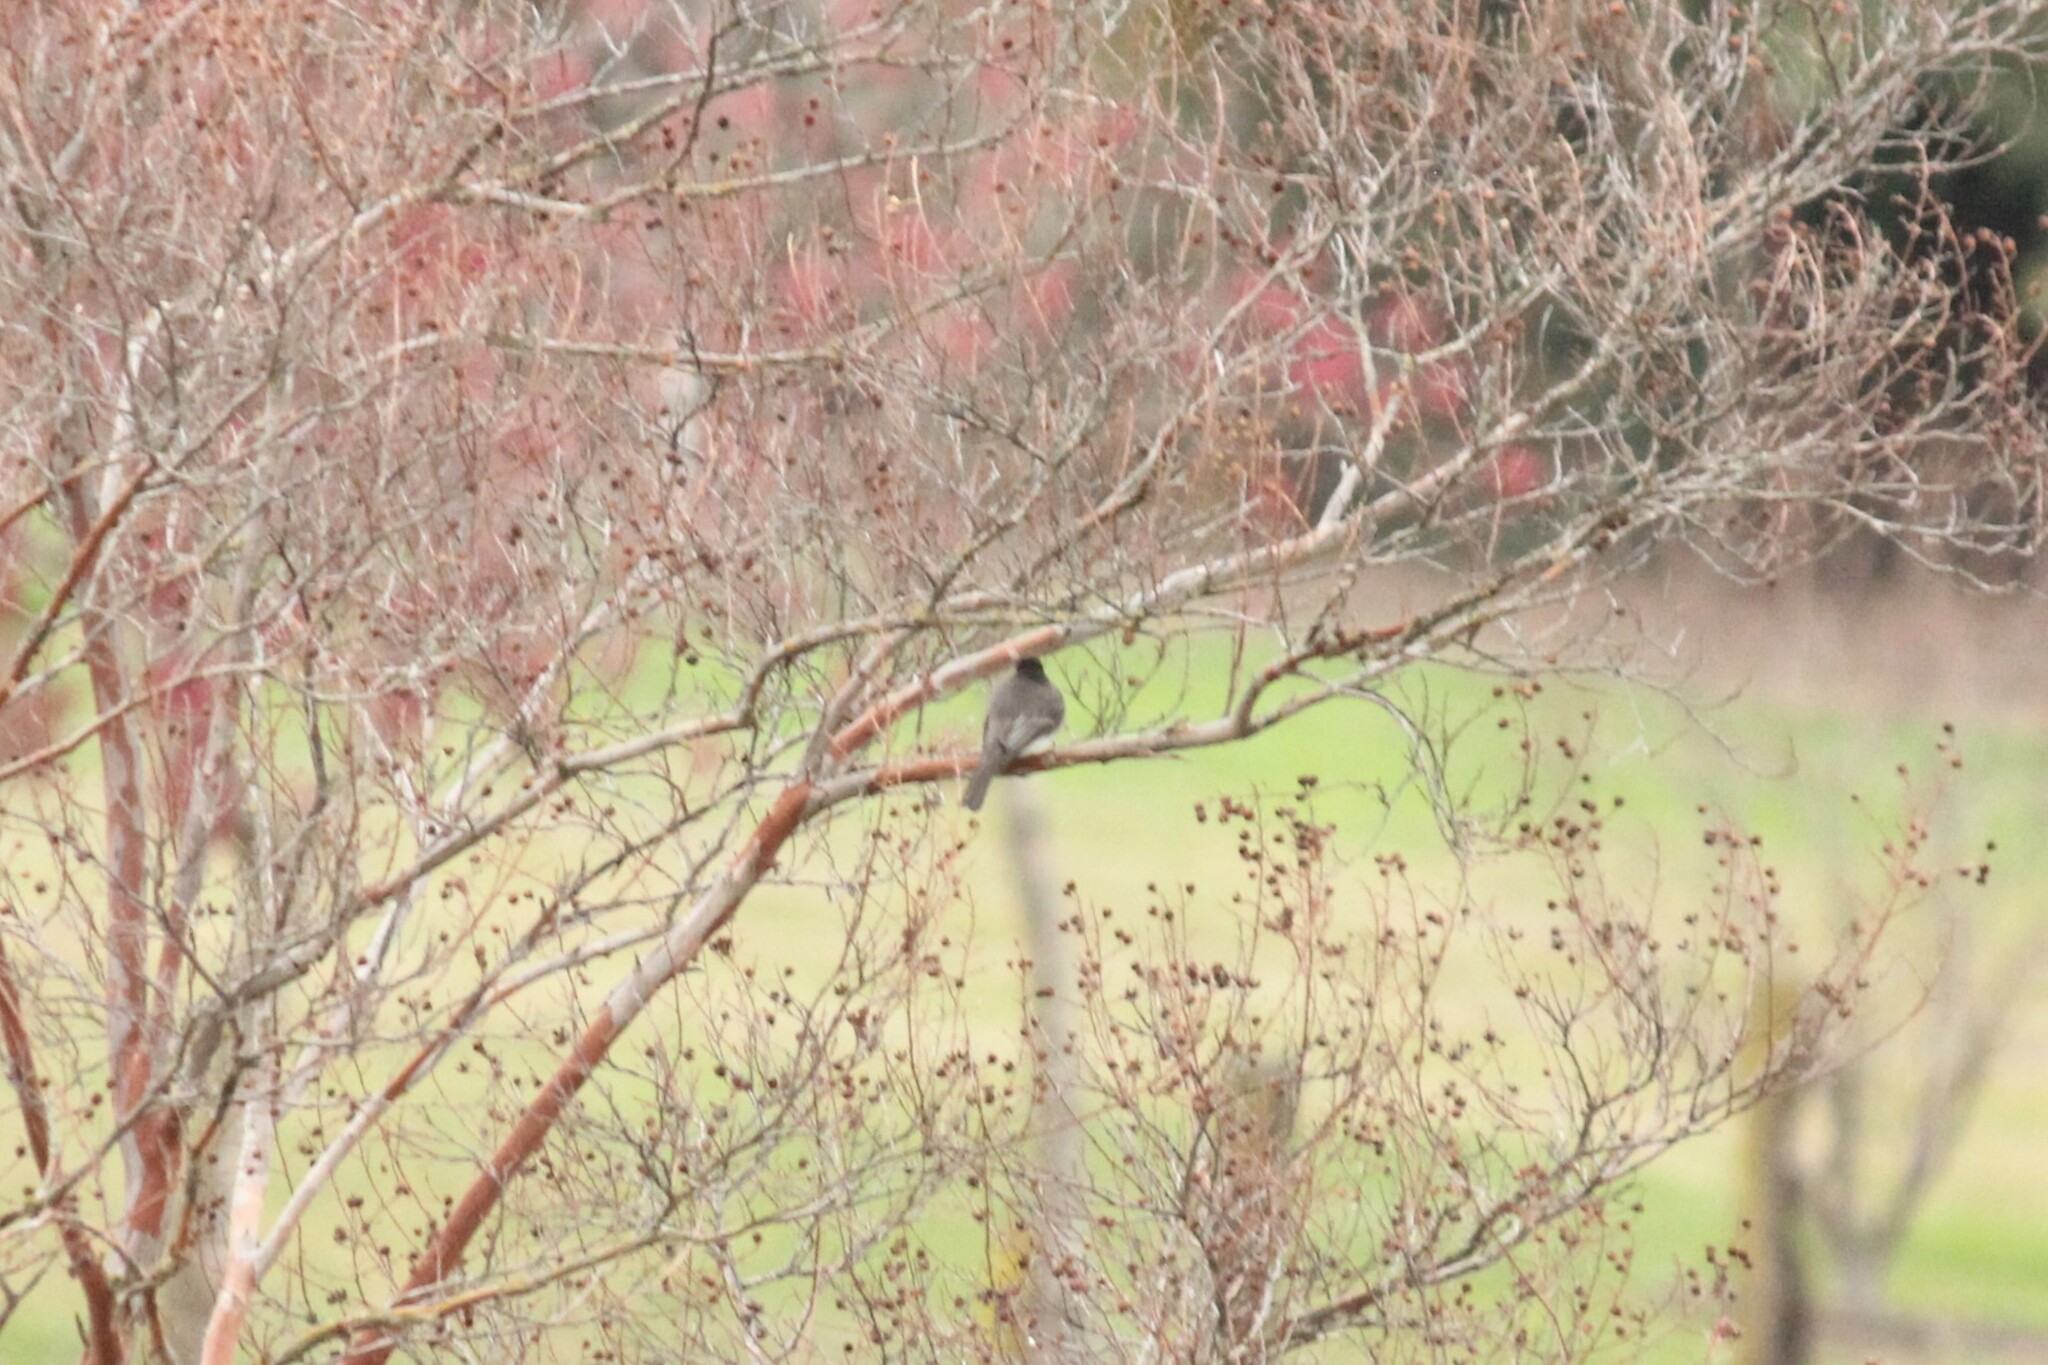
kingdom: Animalia
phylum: Chordata
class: Aves
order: Passeriformes
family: Tyrannidae
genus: Sayornis
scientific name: Sayornis nigricans
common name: Black phoebe
